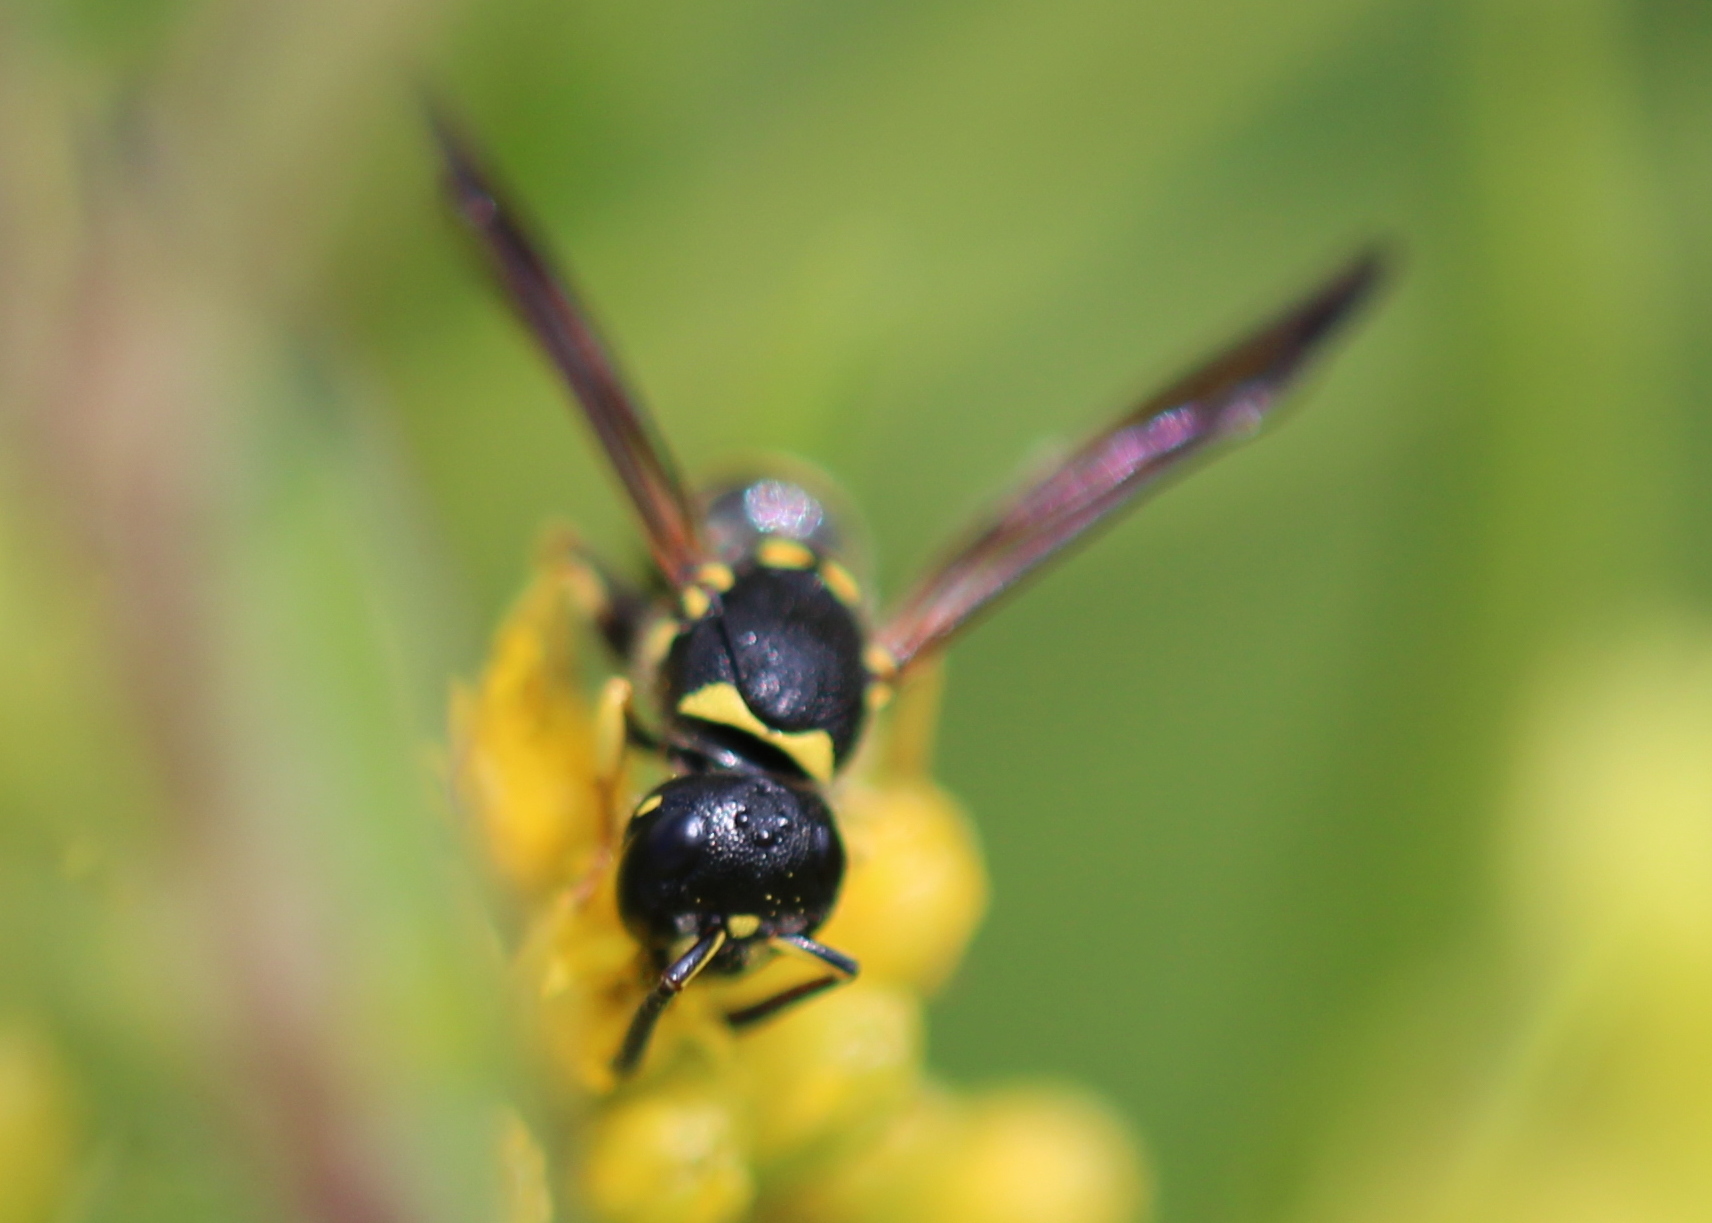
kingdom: Animalia
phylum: Arthropoda
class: Insecta
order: Hymenoptera
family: Vespidae
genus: Ancistrocerus
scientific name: Ancistrocerus adiabatus
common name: Bramble mason wasp
